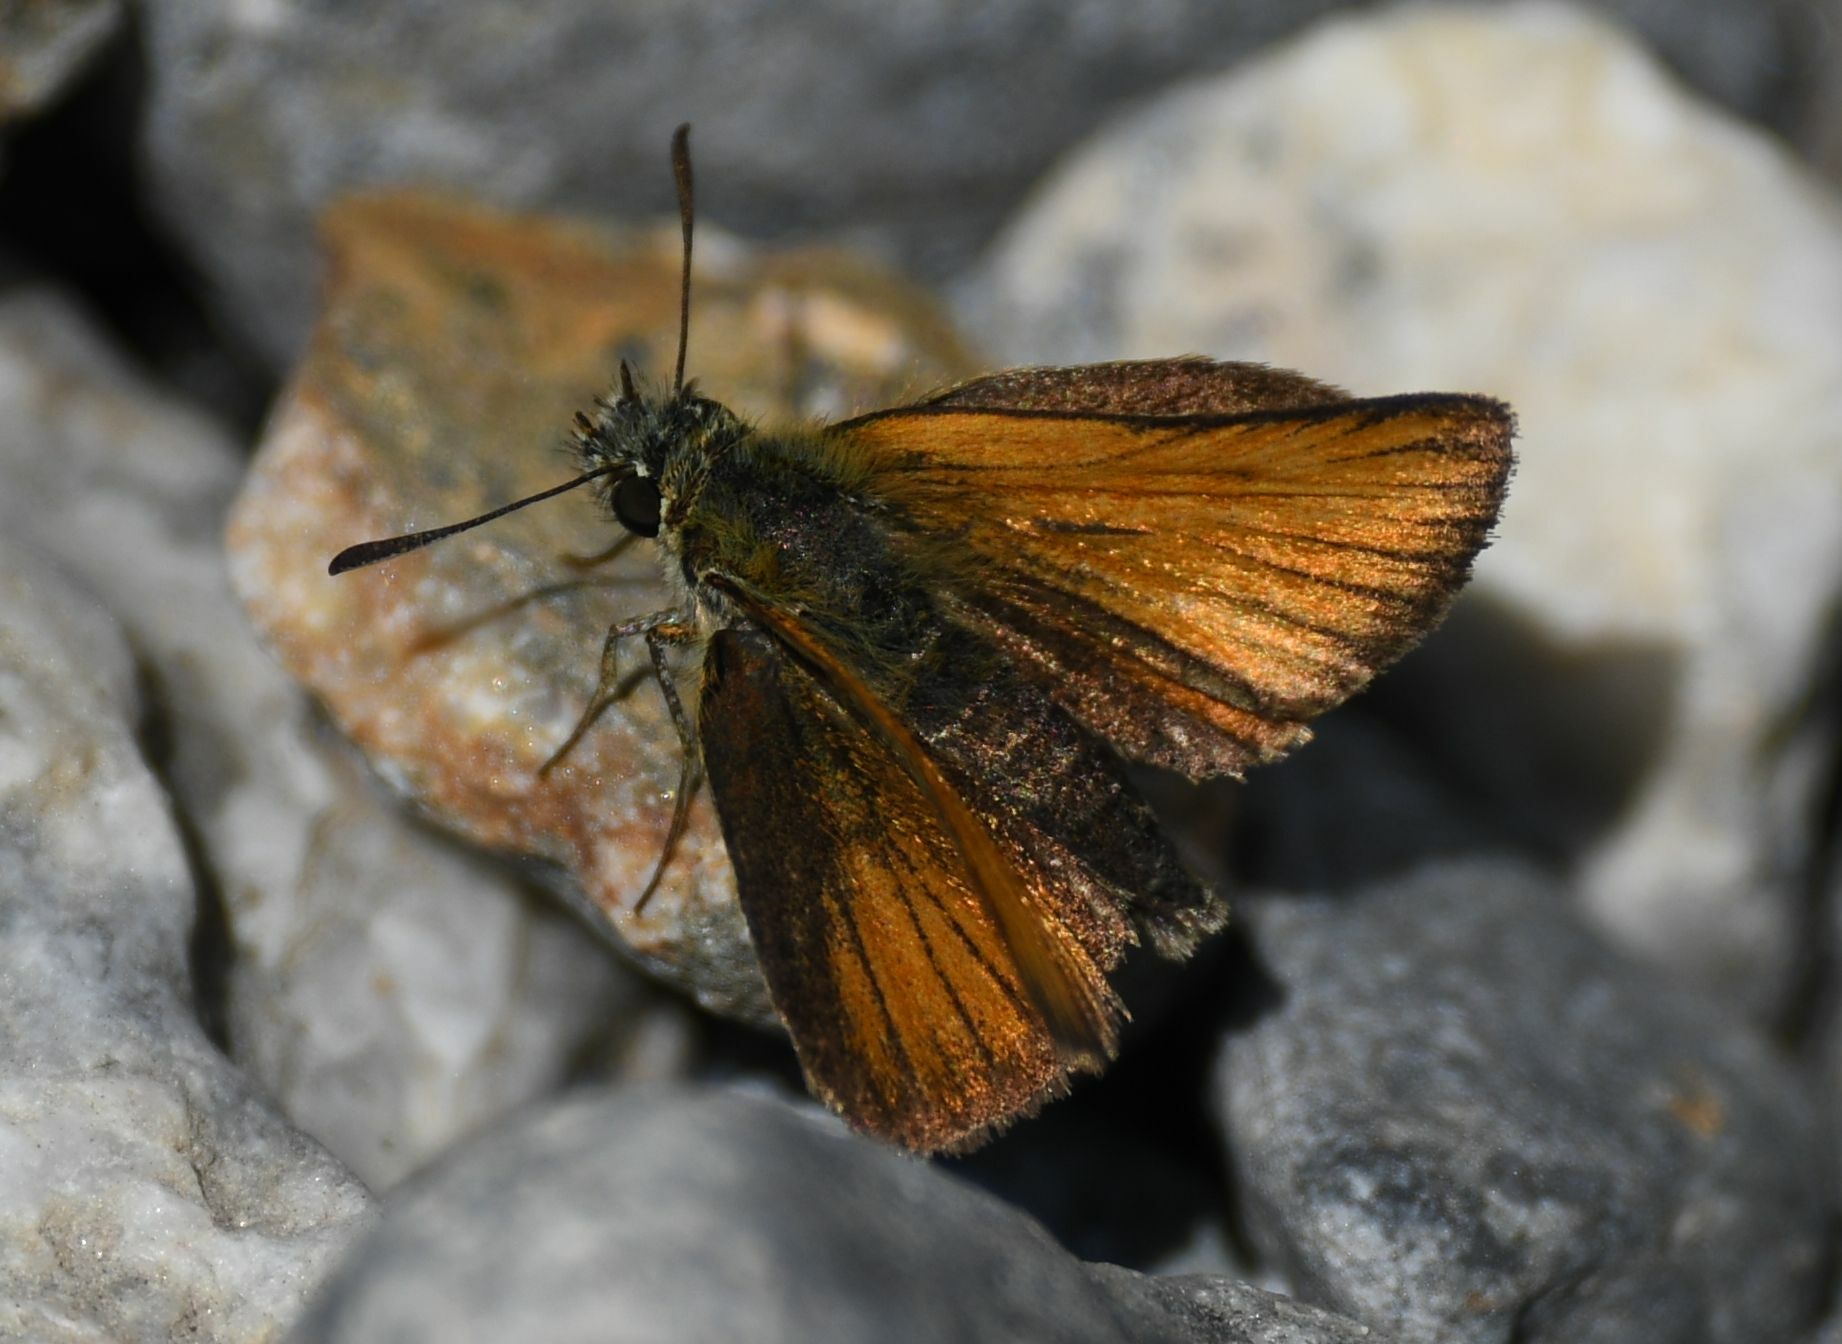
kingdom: Animalia
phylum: Arthropoda
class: Insecta
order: Lepidoptera
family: Hesperiidae
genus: Thymelicus
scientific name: Thymelicus lineola
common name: Essex skipper
